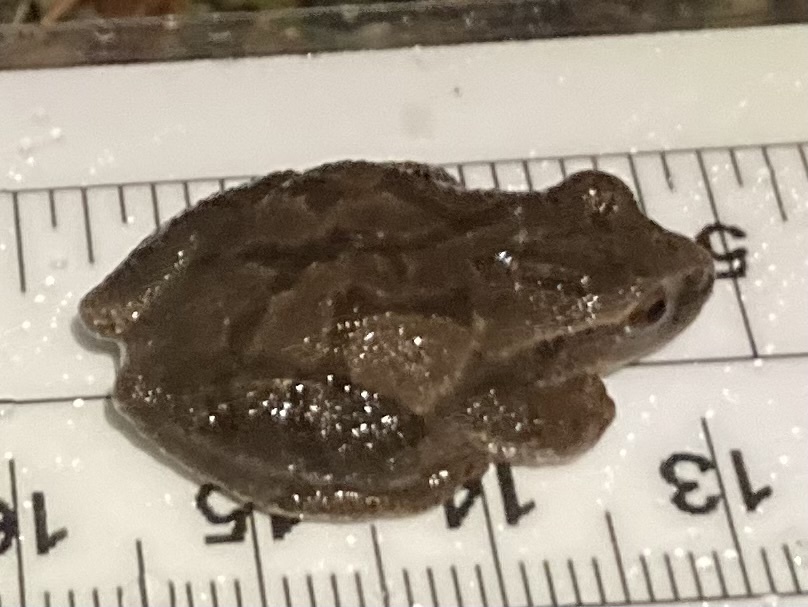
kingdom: Animalia
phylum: Chordata
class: Amphibia
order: Anura
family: Hylidae
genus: Pseudacris
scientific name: Pseudacris crucifer
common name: Spring peeper
